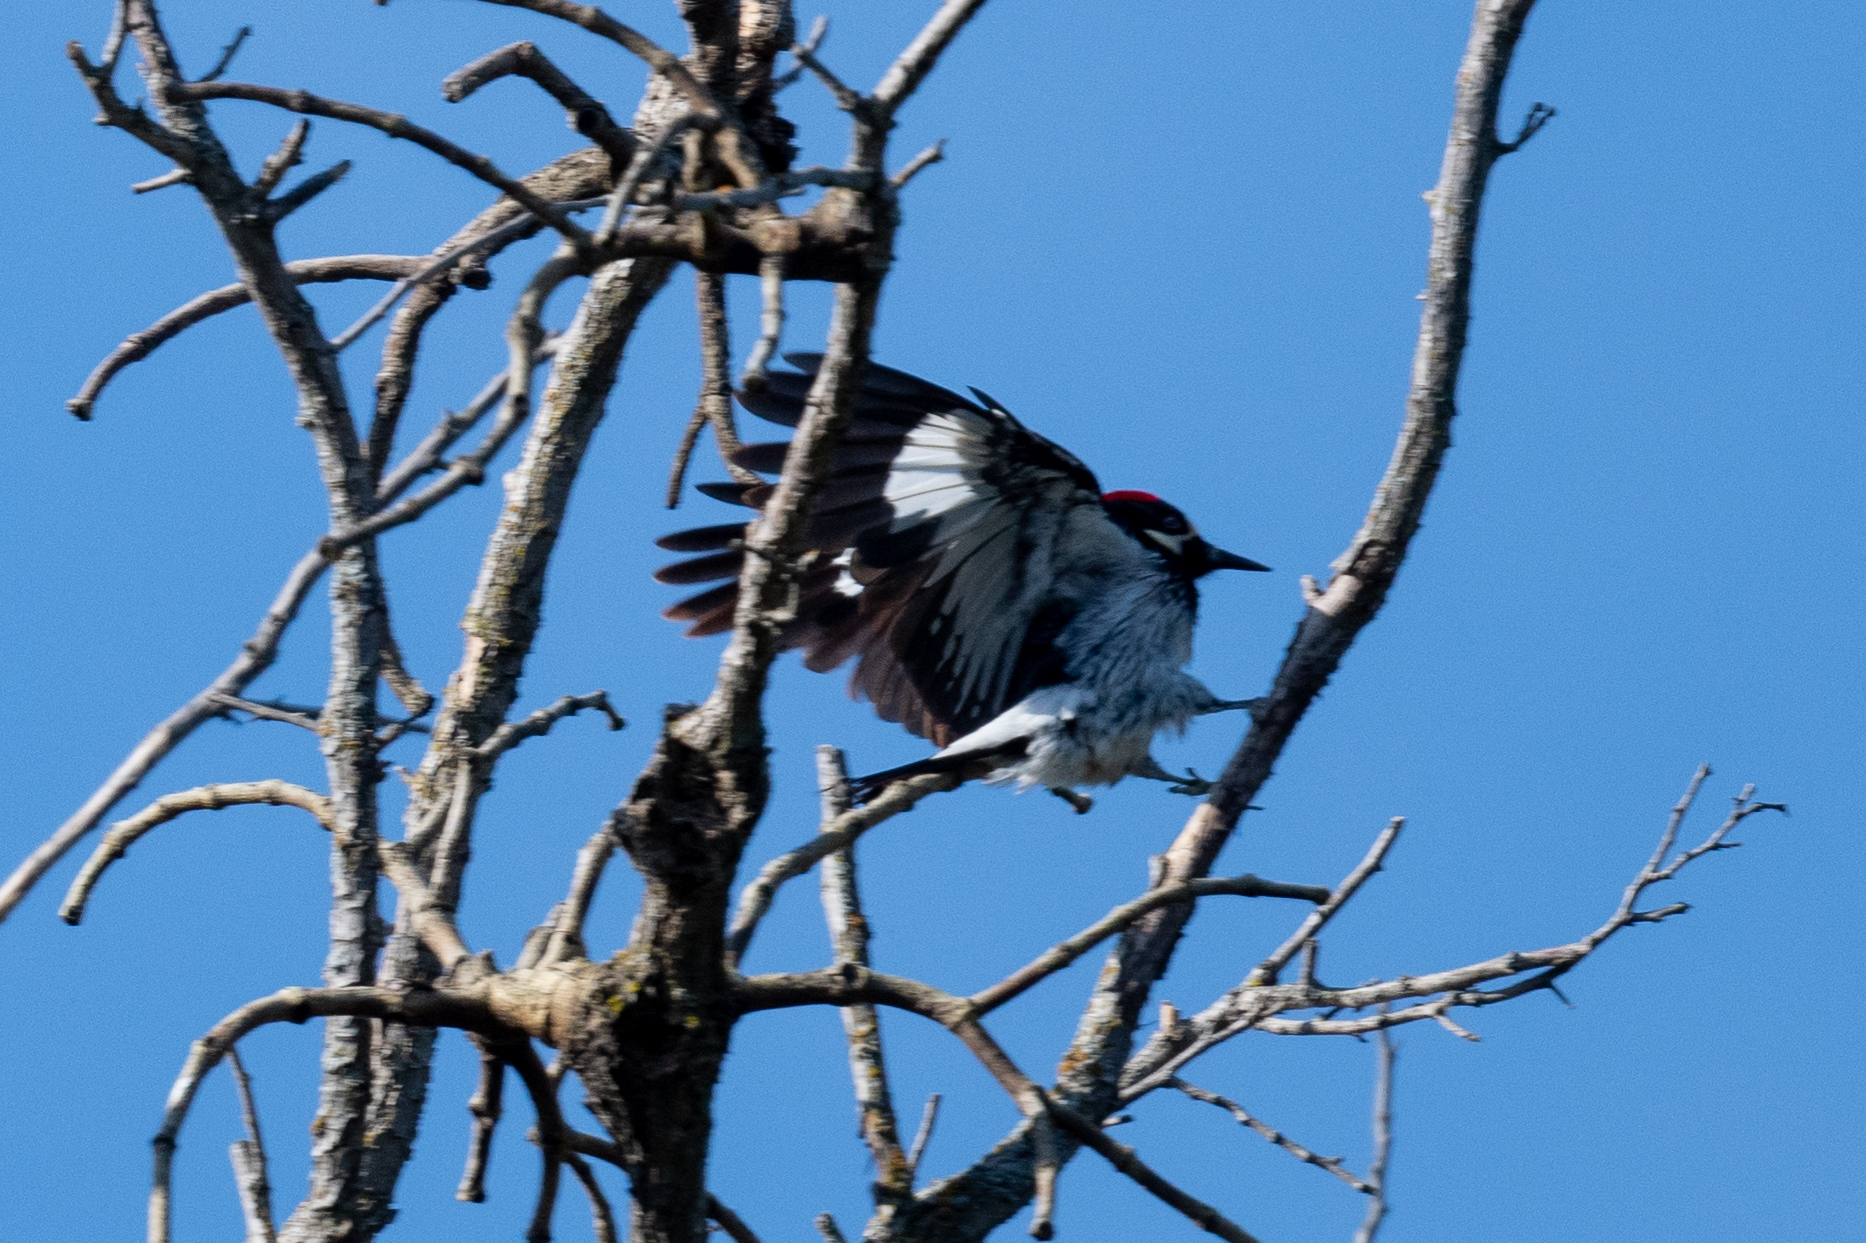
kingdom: Animalia
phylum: Chordata
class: Aves
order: Piciformes
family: Picidae
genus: Melanerpes
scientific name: Melanerpes formicivorus
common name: Acorn woodpecker
